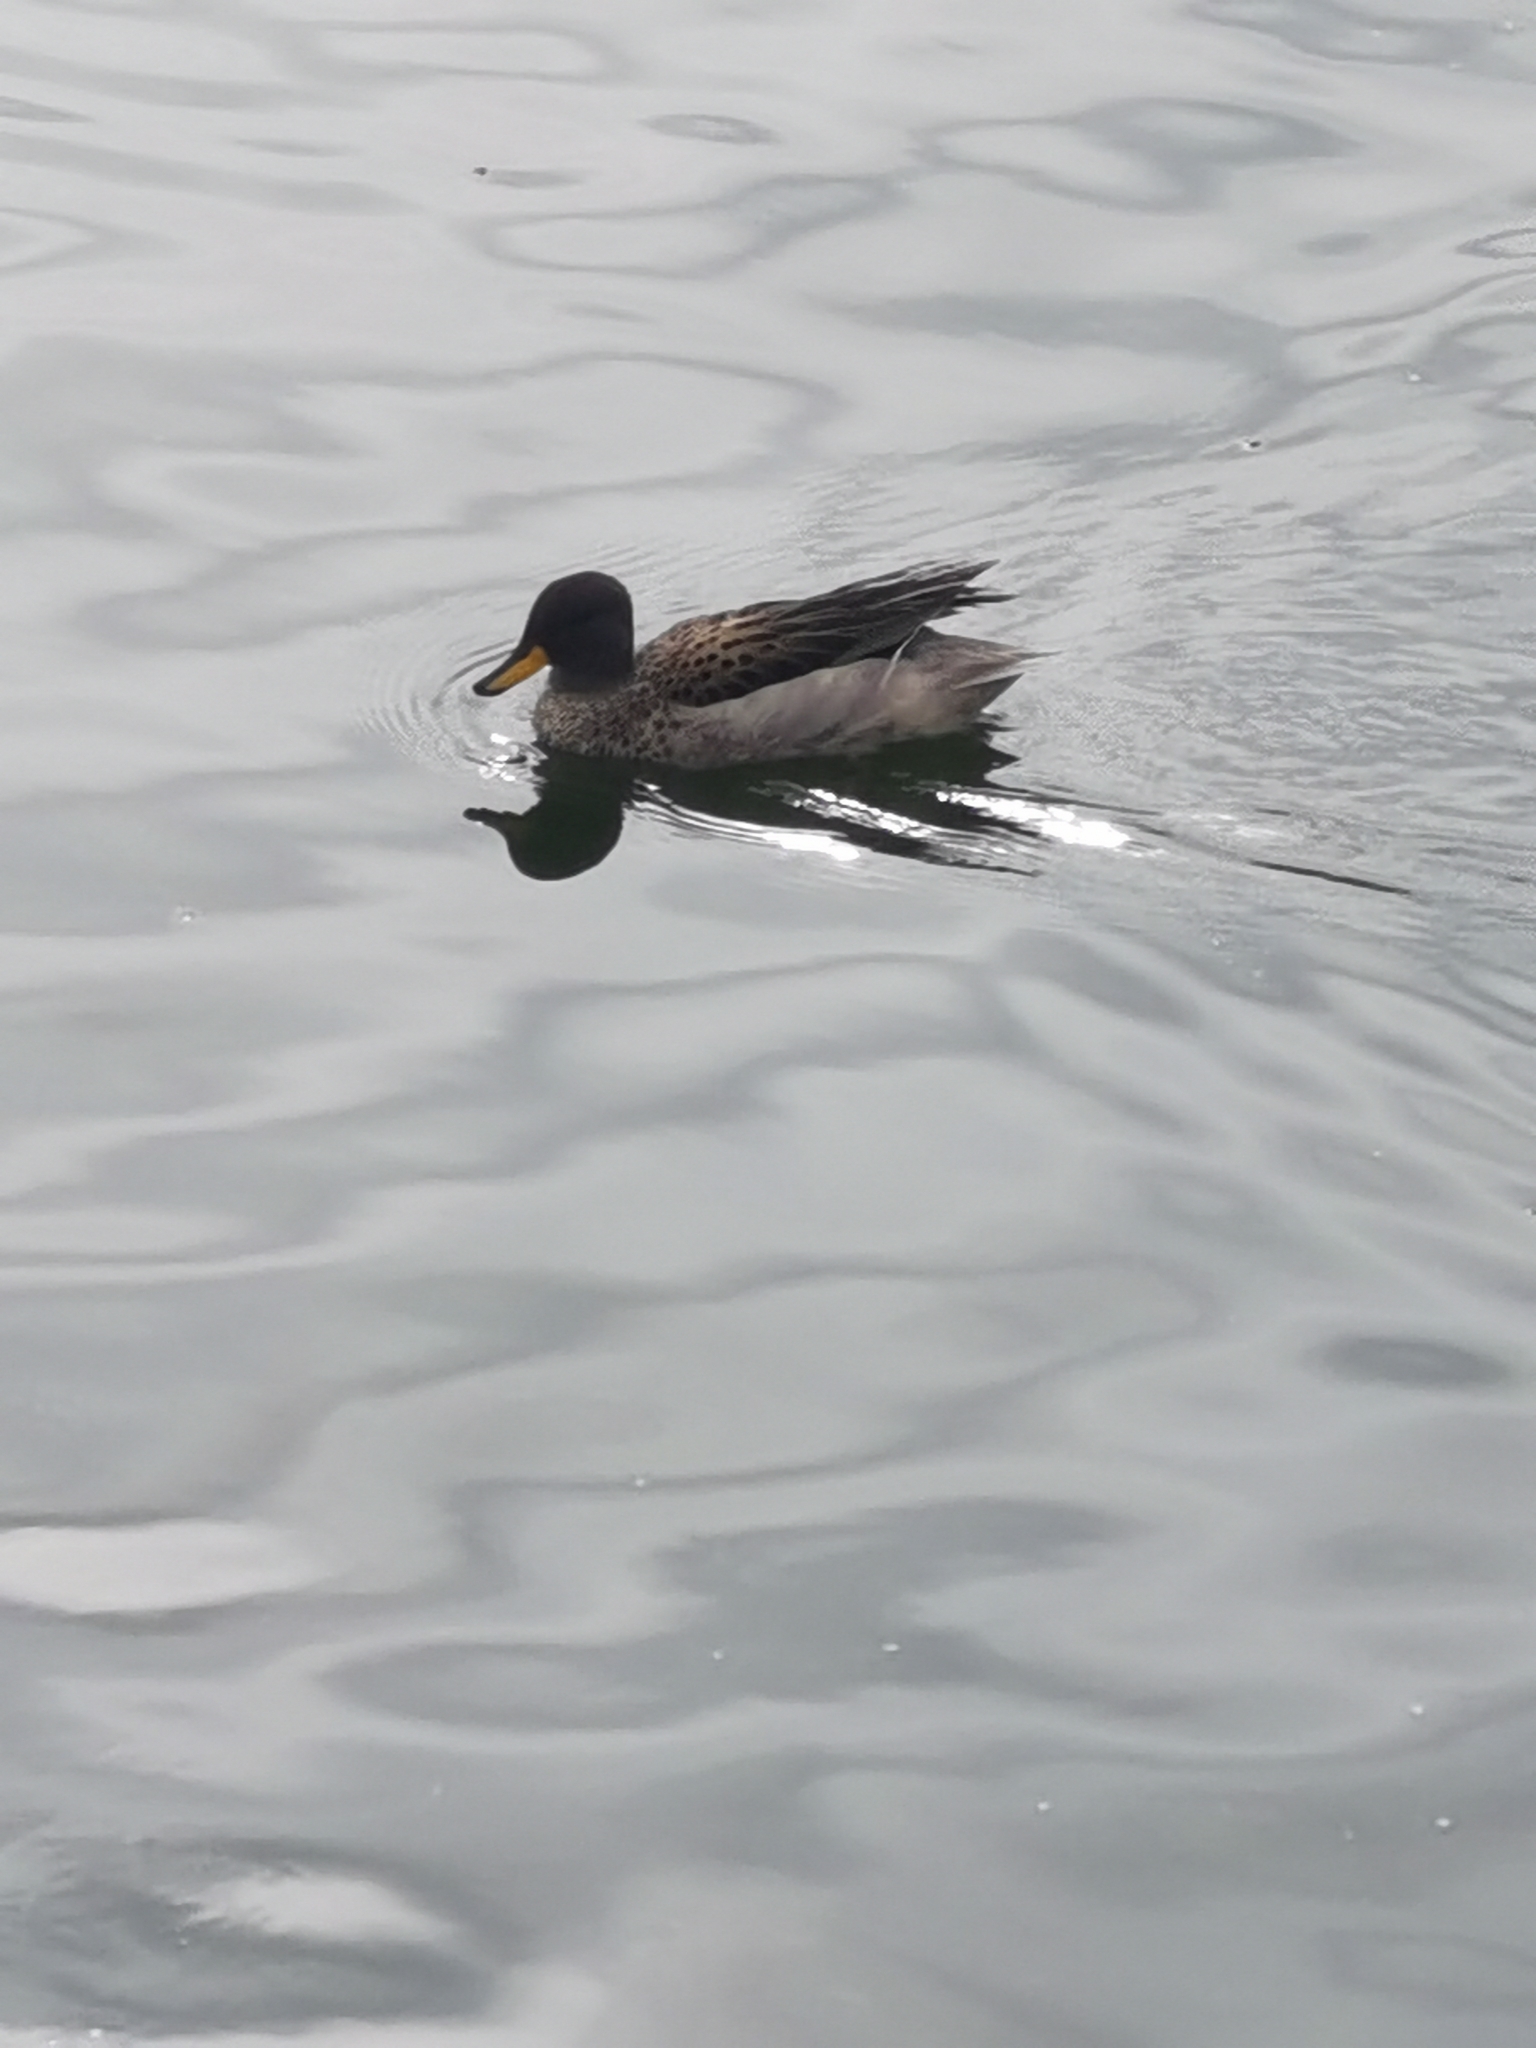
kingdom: Animalia
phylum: Chordata
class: Aves
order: Anseriformes
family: Anatidae
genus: Anas
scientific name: Anas flavirostris
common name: Yellow-billed teal
